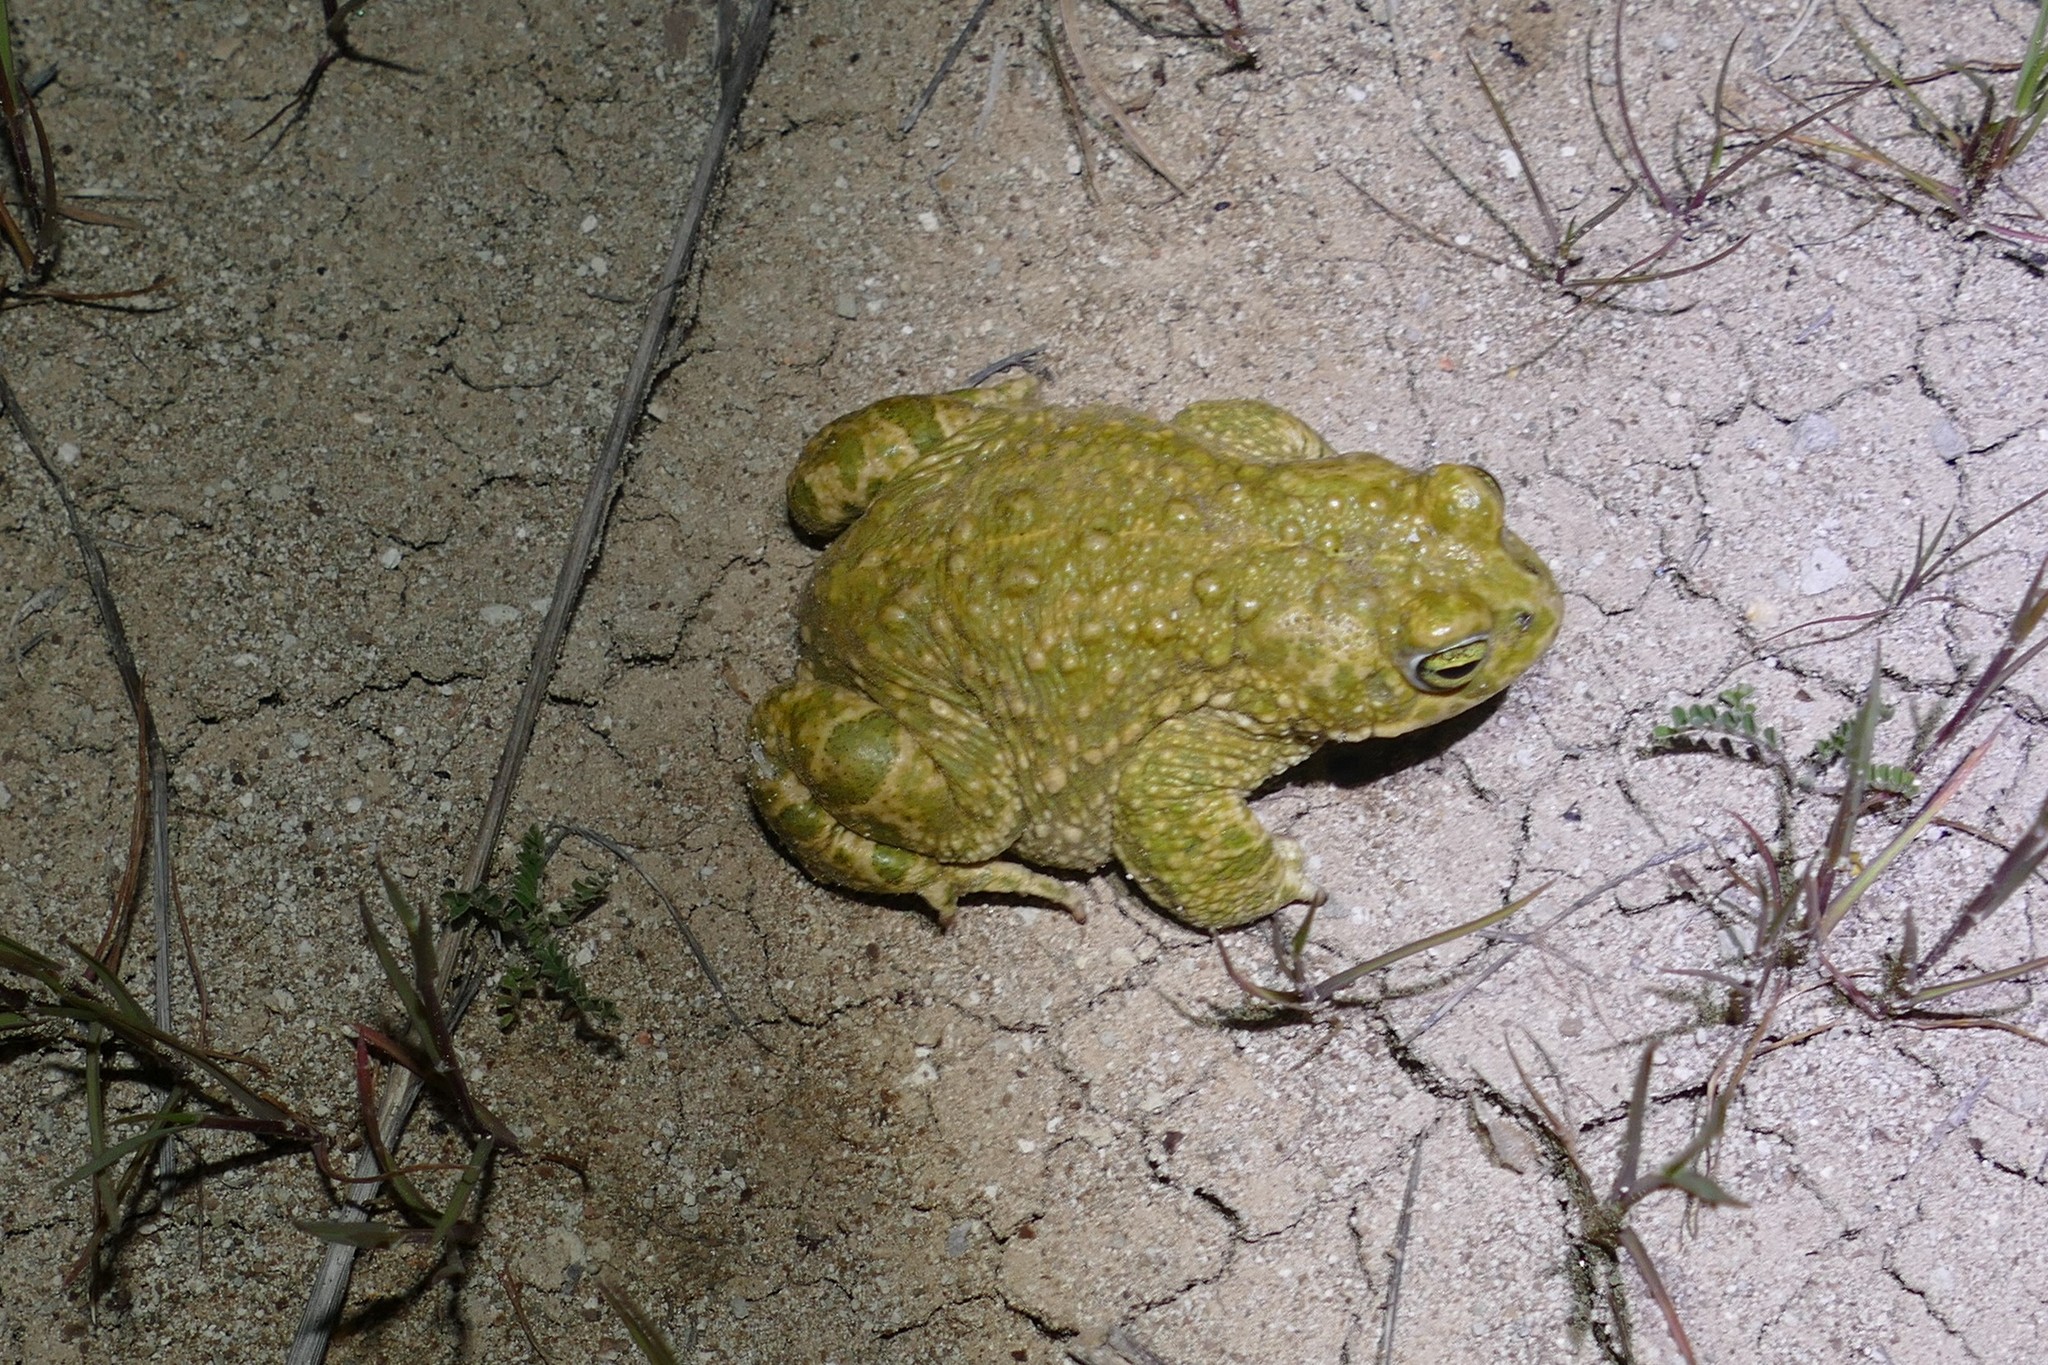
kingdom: Animalia
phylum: Chordata
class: Amphibia
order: Anura
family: Bufonidae
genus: Epidalea
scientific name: Epidalea calamita
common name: Natterjack toad
